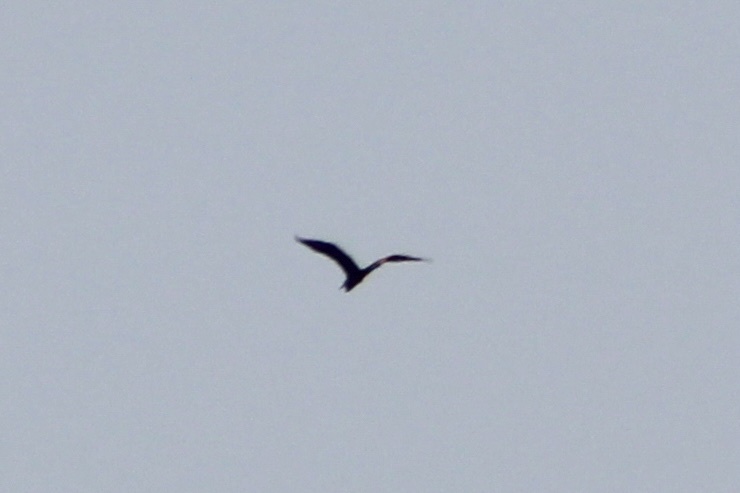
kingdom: Animalia
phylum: Chordata
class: Aves
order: Pelecaniformes
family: Ardeidae
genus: Ardea
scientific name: Ardea herodias
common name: Great blue heron
